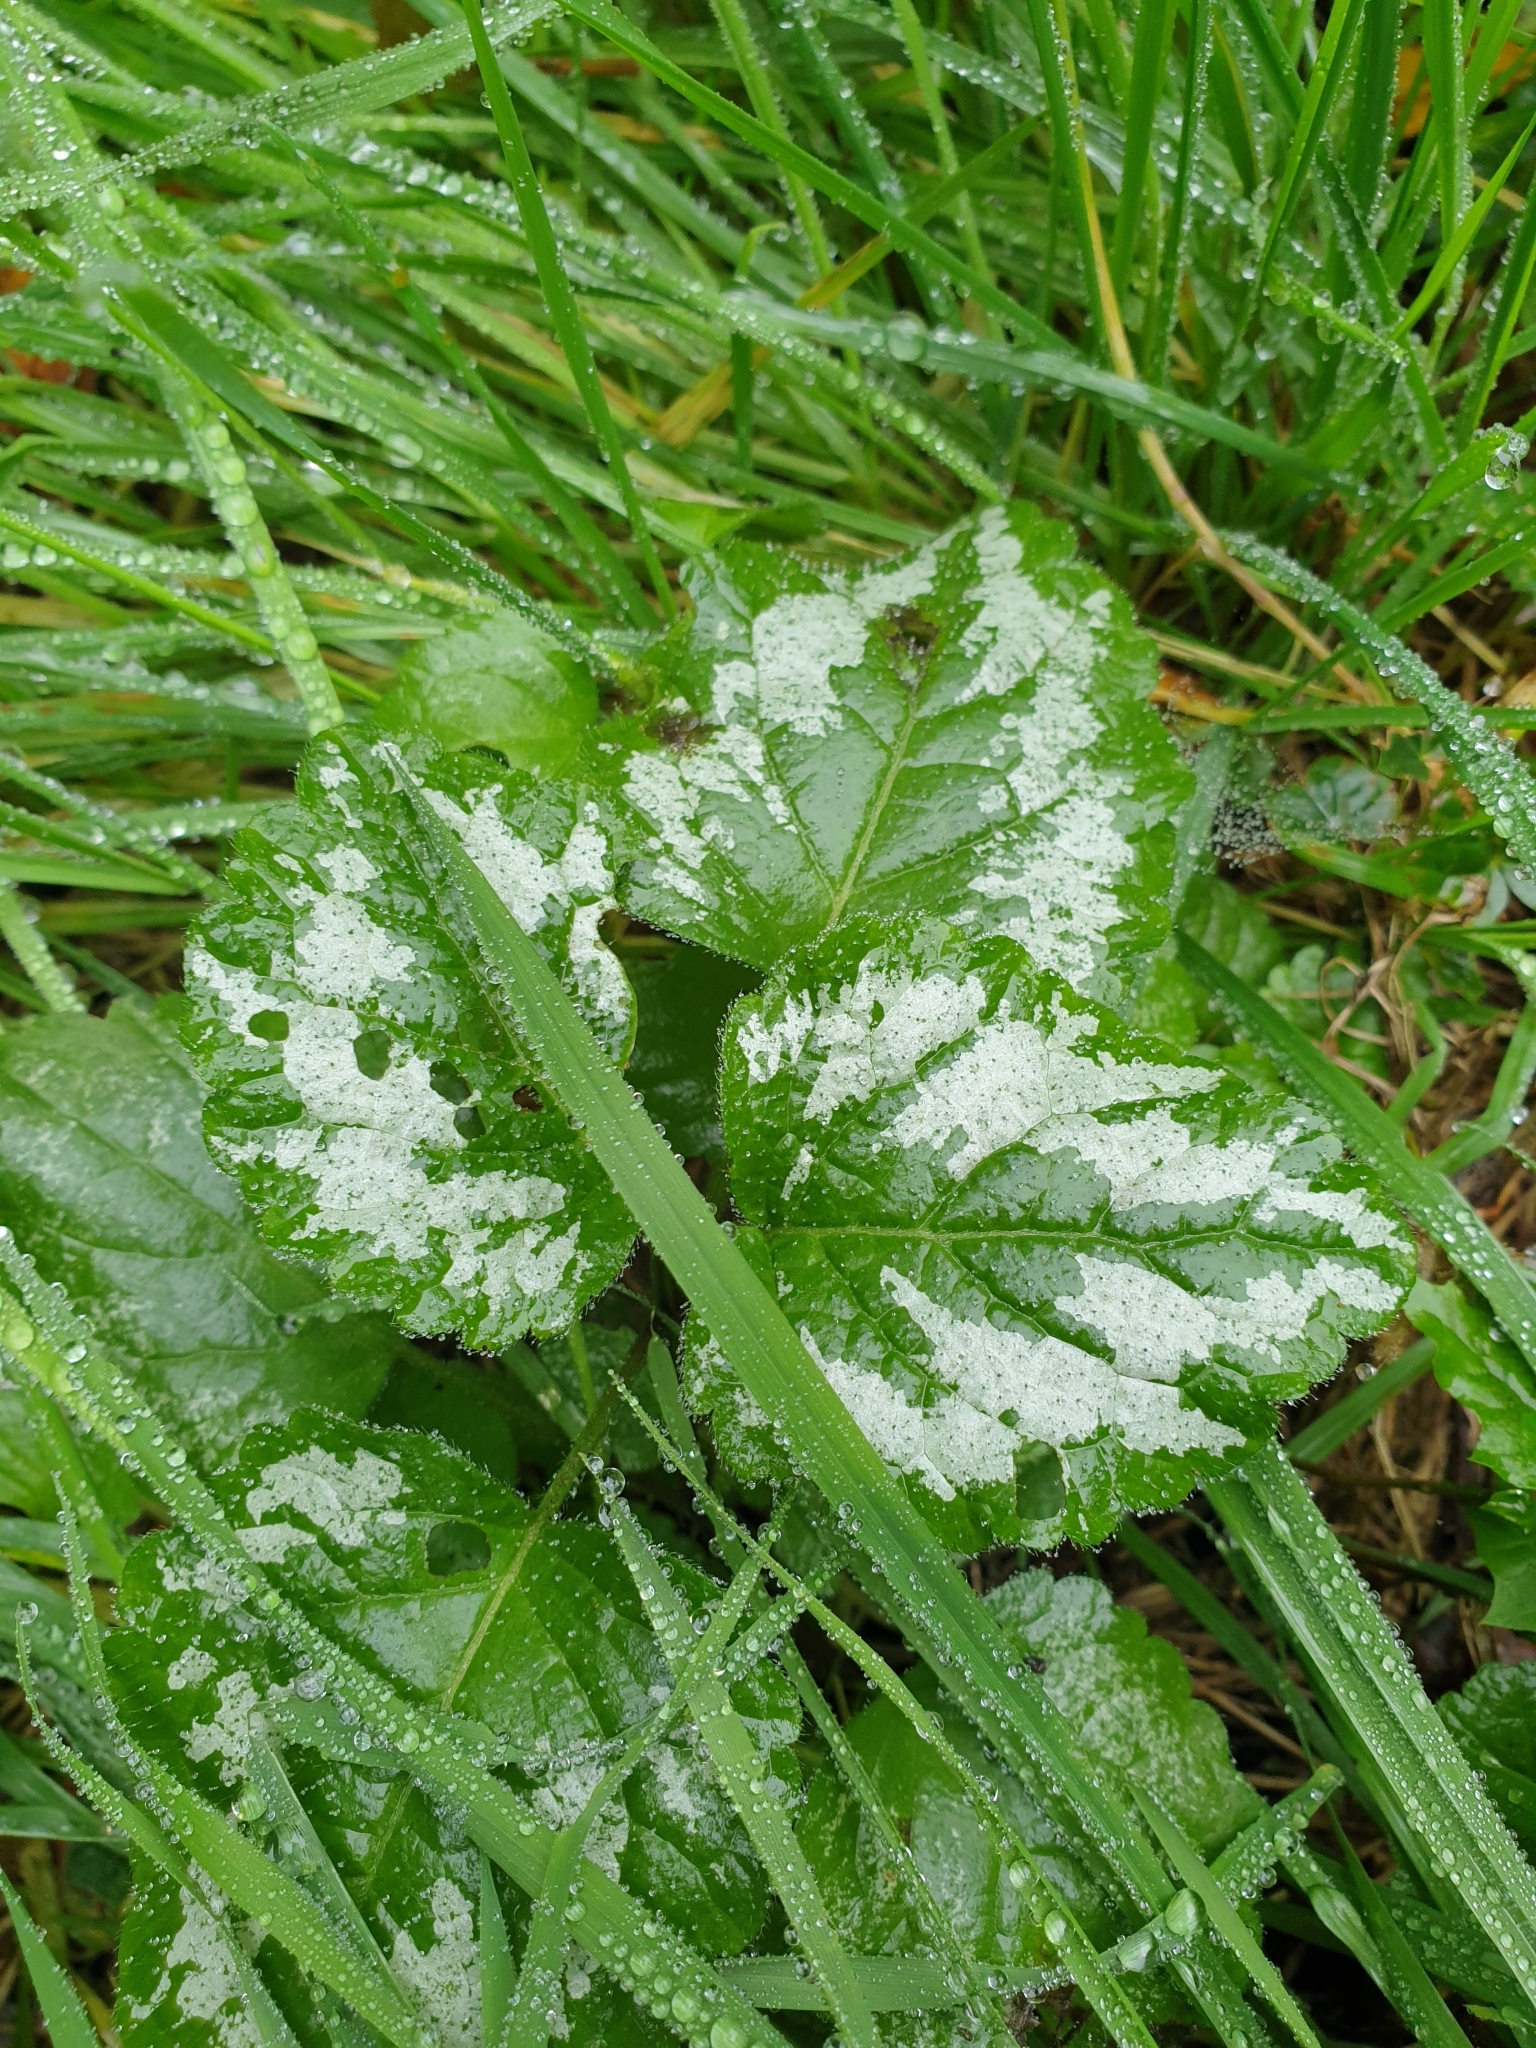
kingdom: Plantae
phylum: Tracheophyta
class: Magnoliopsida
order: Lamiales
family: Lamiaceae
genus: Lamium
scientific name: Lamium galeobdolon
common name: Yellow archangel
